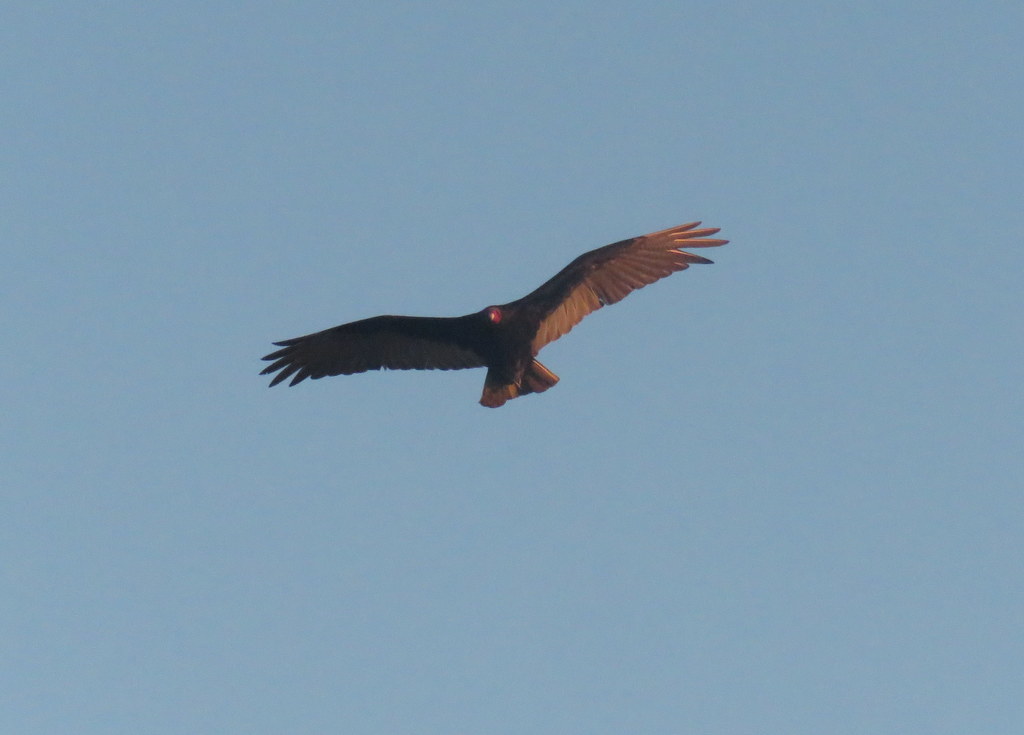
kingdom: Animalia
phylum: Chordata
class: Aves
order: Accipitriformes
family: Cathartidae
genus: Cathartes
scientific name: Cathartes aura
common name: Turkey vulture
